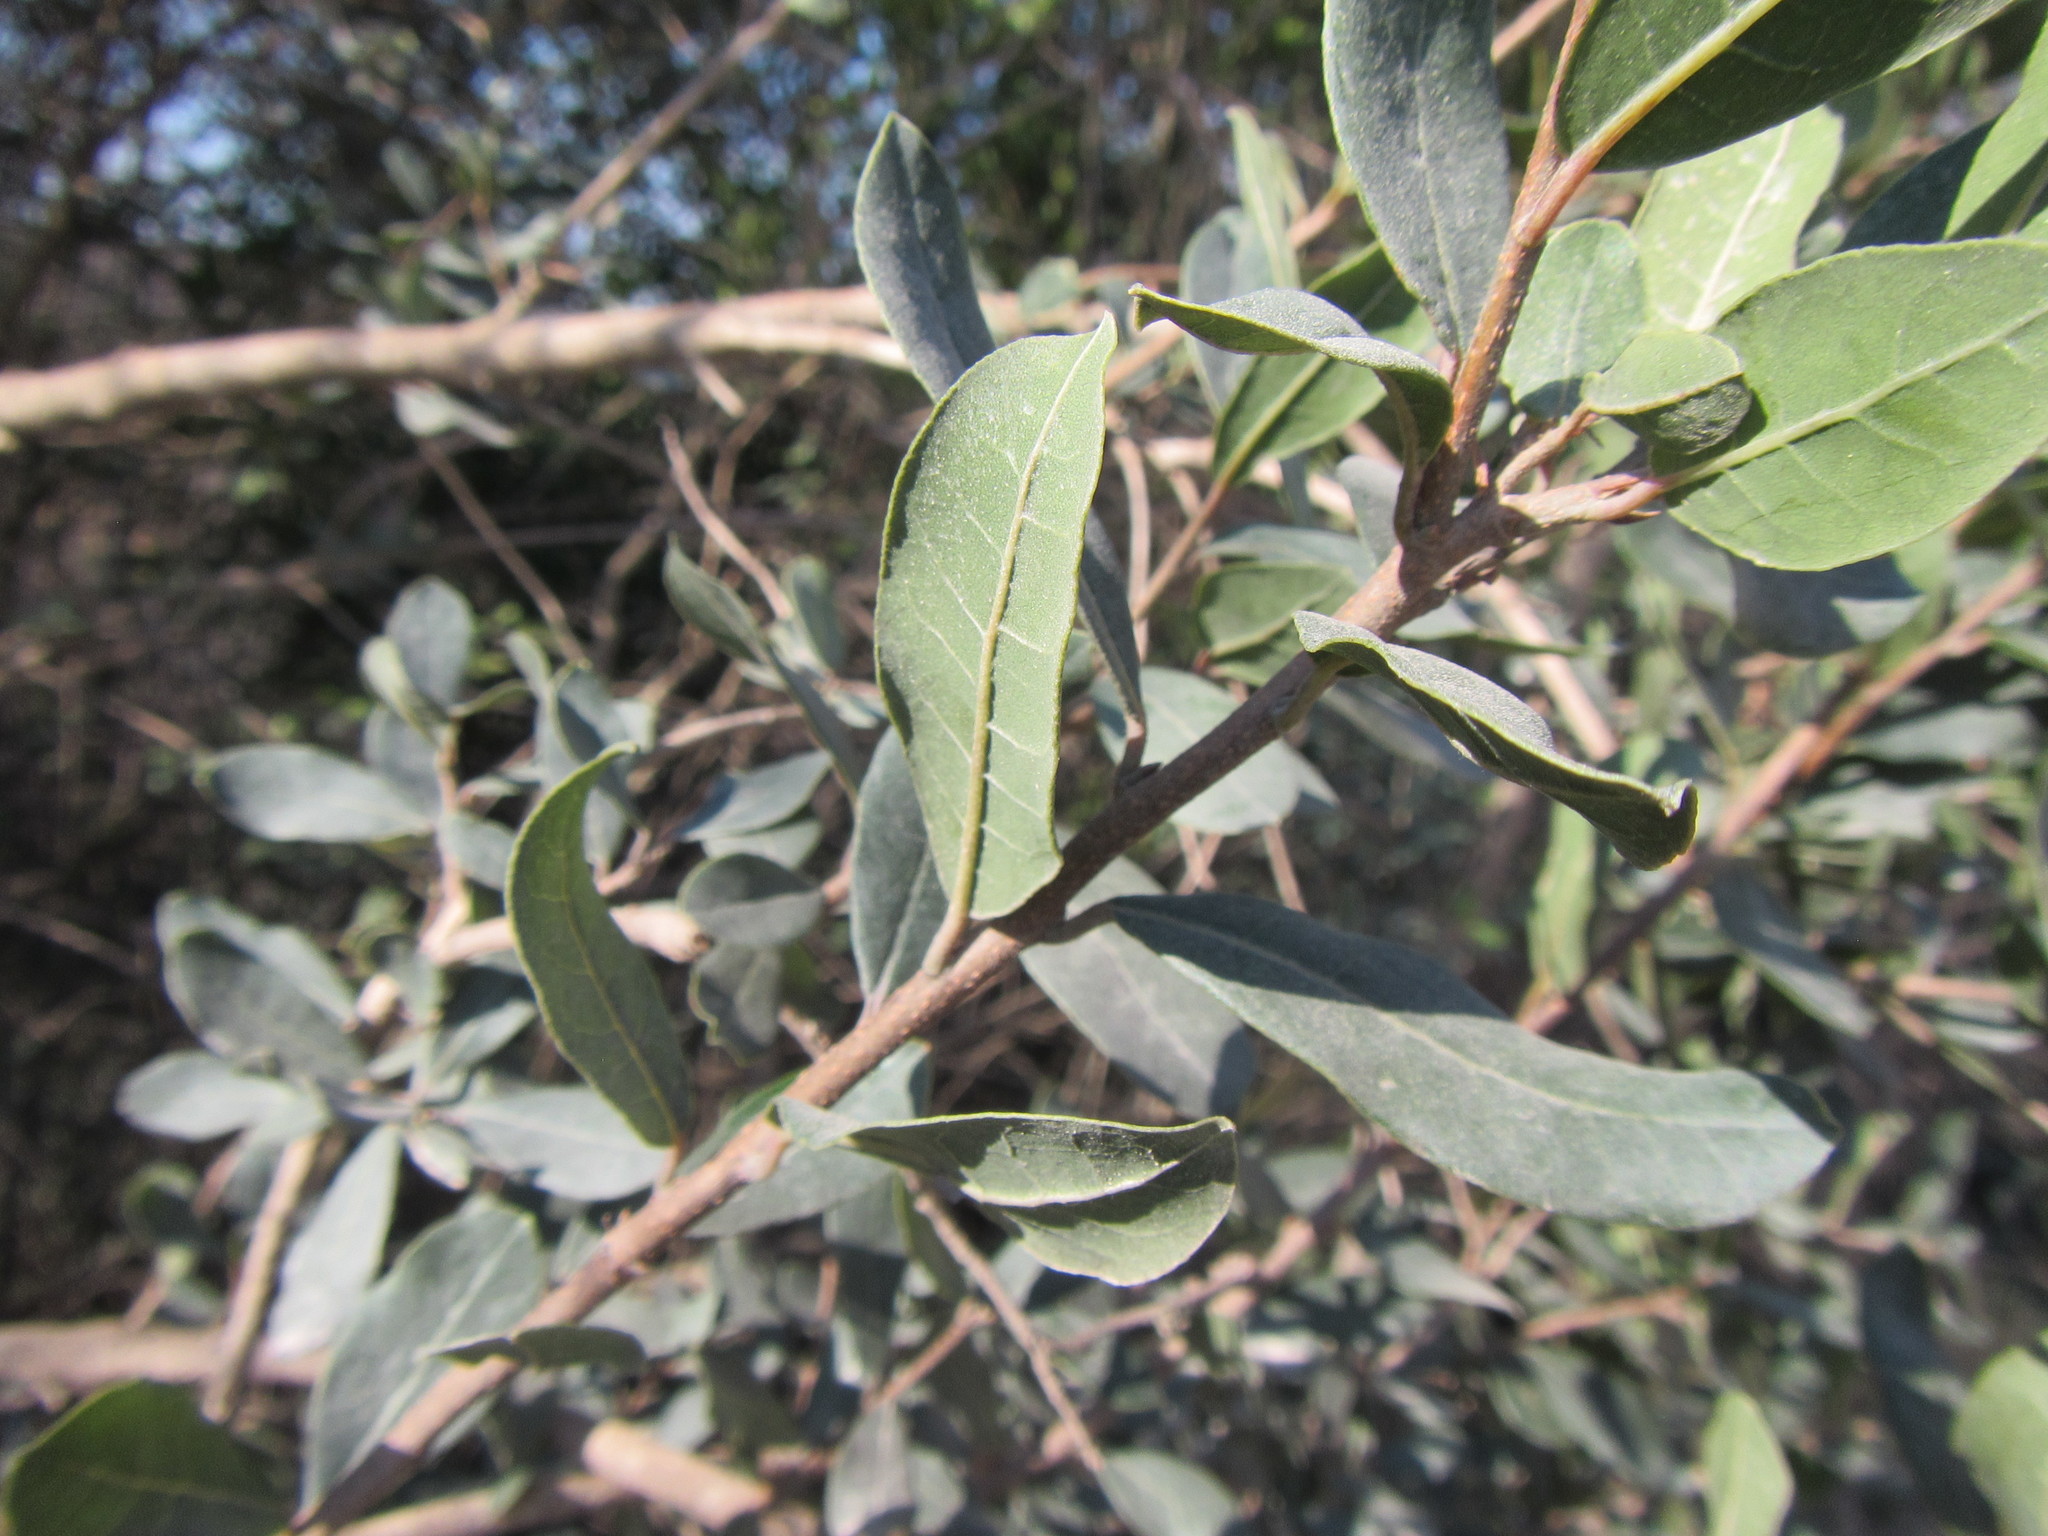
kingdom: Plantae
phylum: Tracheophyta
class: Magnoliopsida
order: Malpighiales
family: Phyllanthaceae
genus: Lachnostylis
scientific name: Lachnostylis hirta
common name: Coalwood
